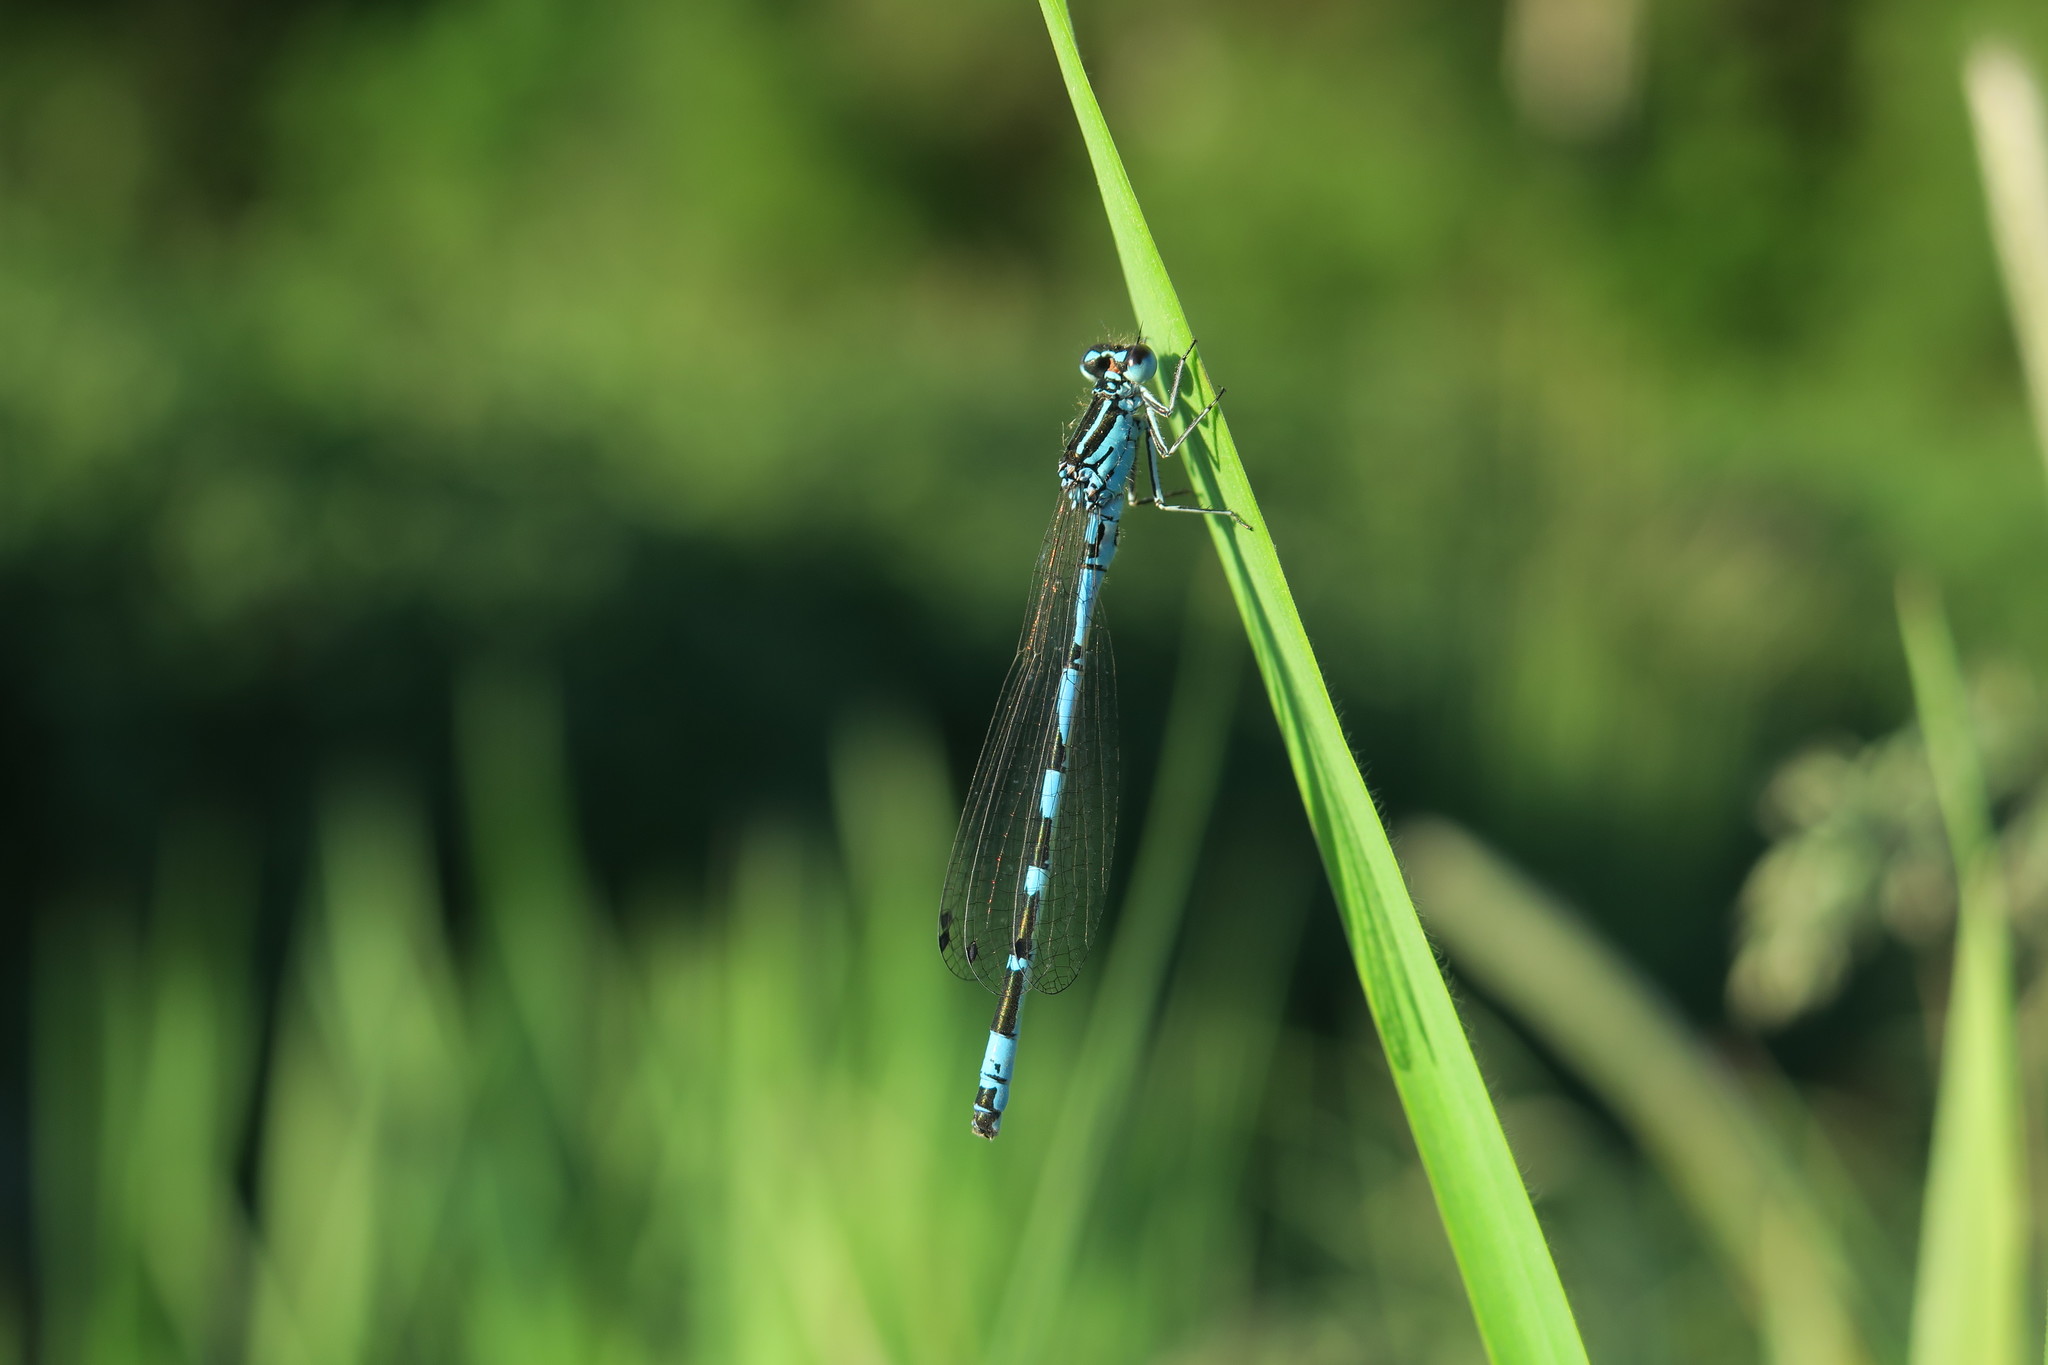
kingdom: Animalia
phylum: Arthropoda
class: Insecta
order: Odonata
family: Coenagrionidae
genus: Coenagrion
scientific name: Coenagrion ornatum
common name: Ornate bluet
